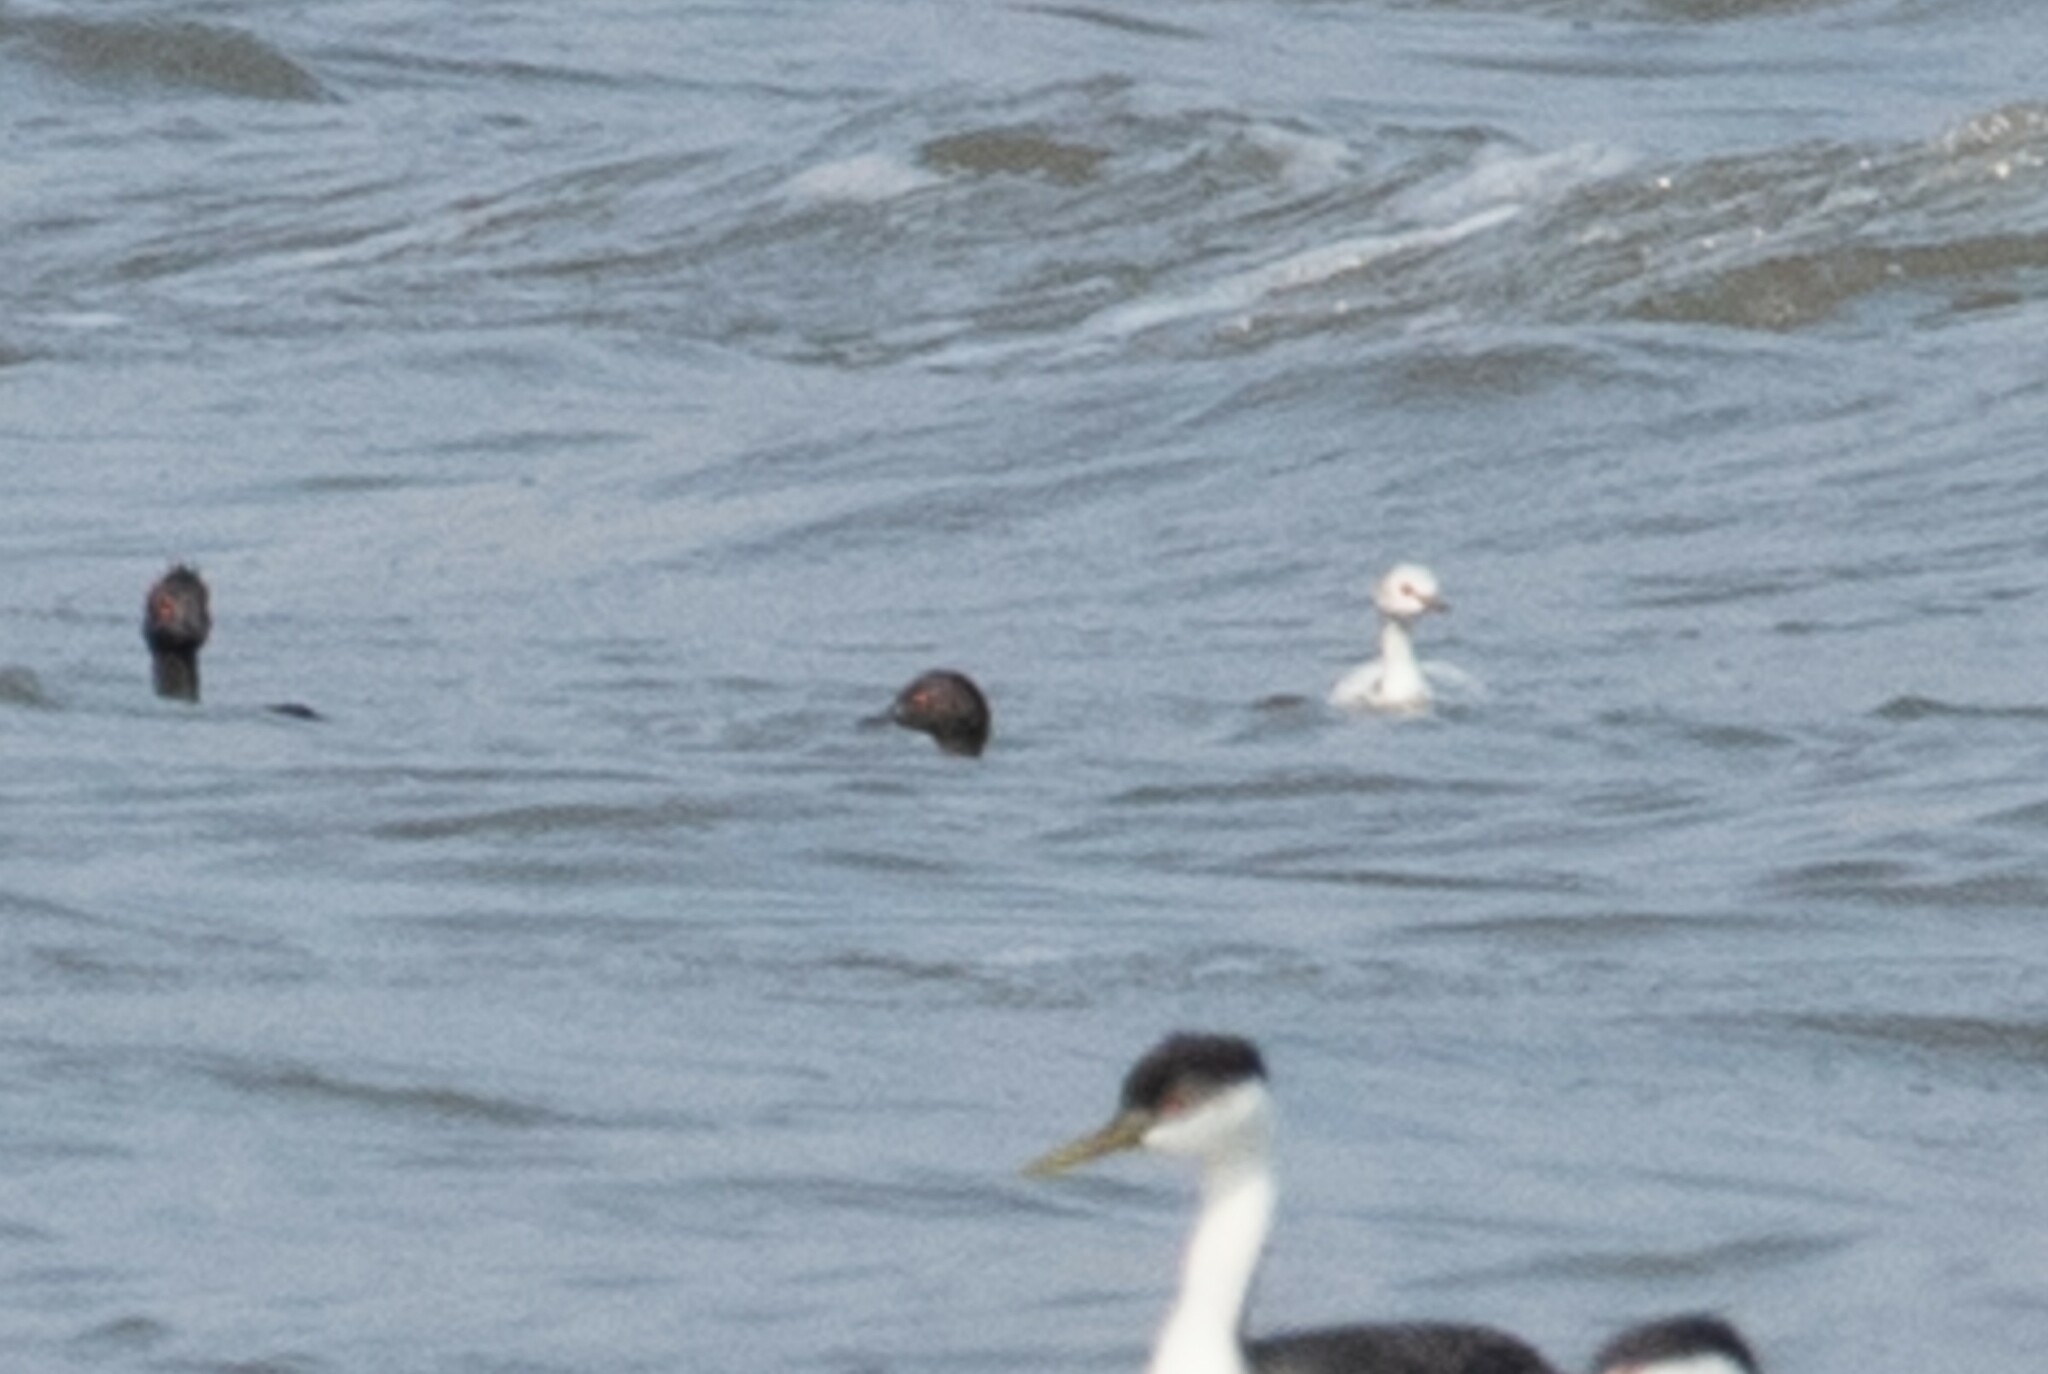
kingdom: Animalia
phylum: Chordata
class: Aves
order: Podicipediformes
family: Podicipedidae
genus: Podiceps
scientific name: Podiceps nigricollis
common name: Black-necked grebe
